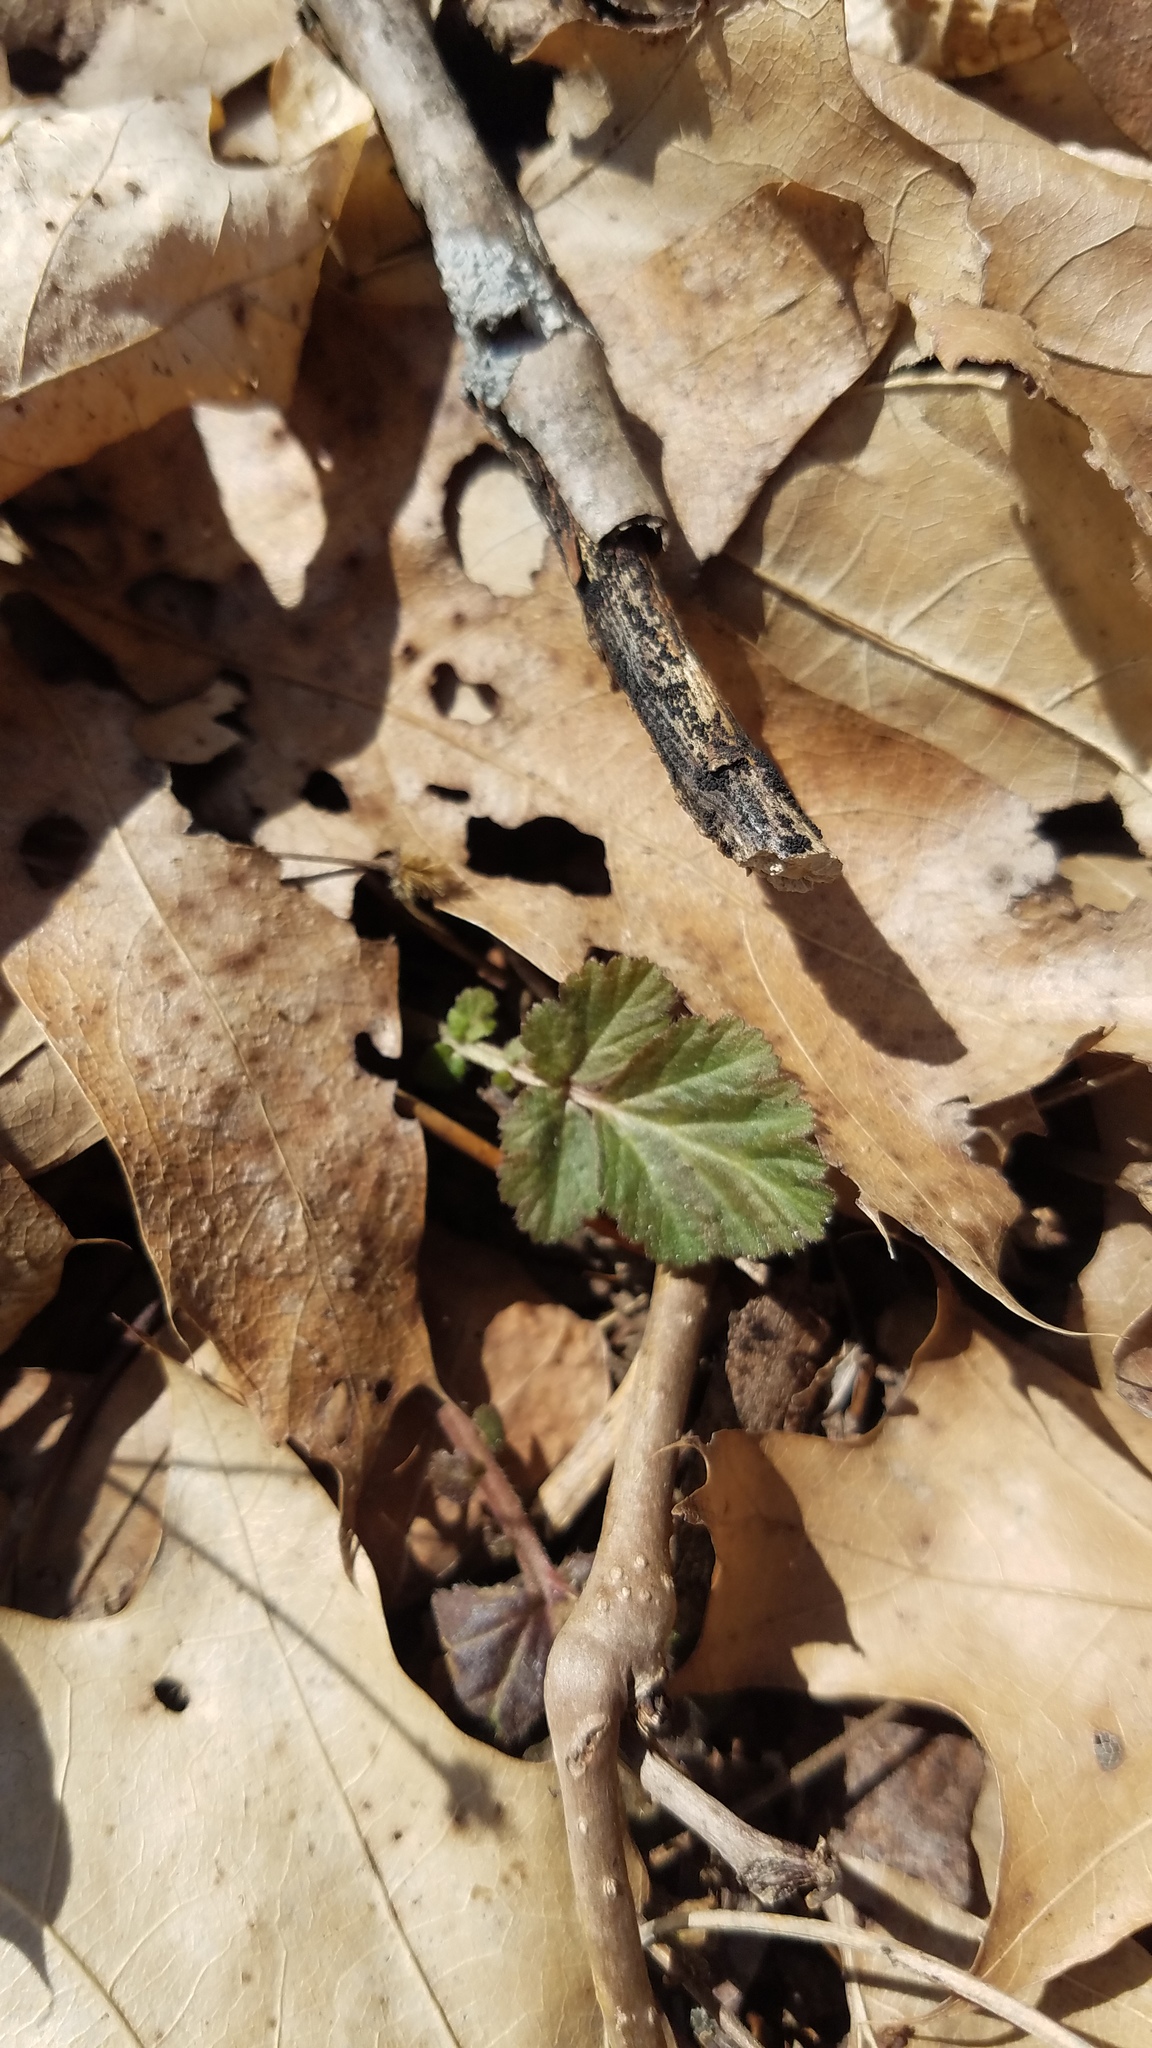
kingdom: Plantae
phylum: Tracheophyta
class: Magnoliopsida
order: Rosales
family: Rosaceae
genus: Geum
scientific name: Geum canadense
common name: White avens
